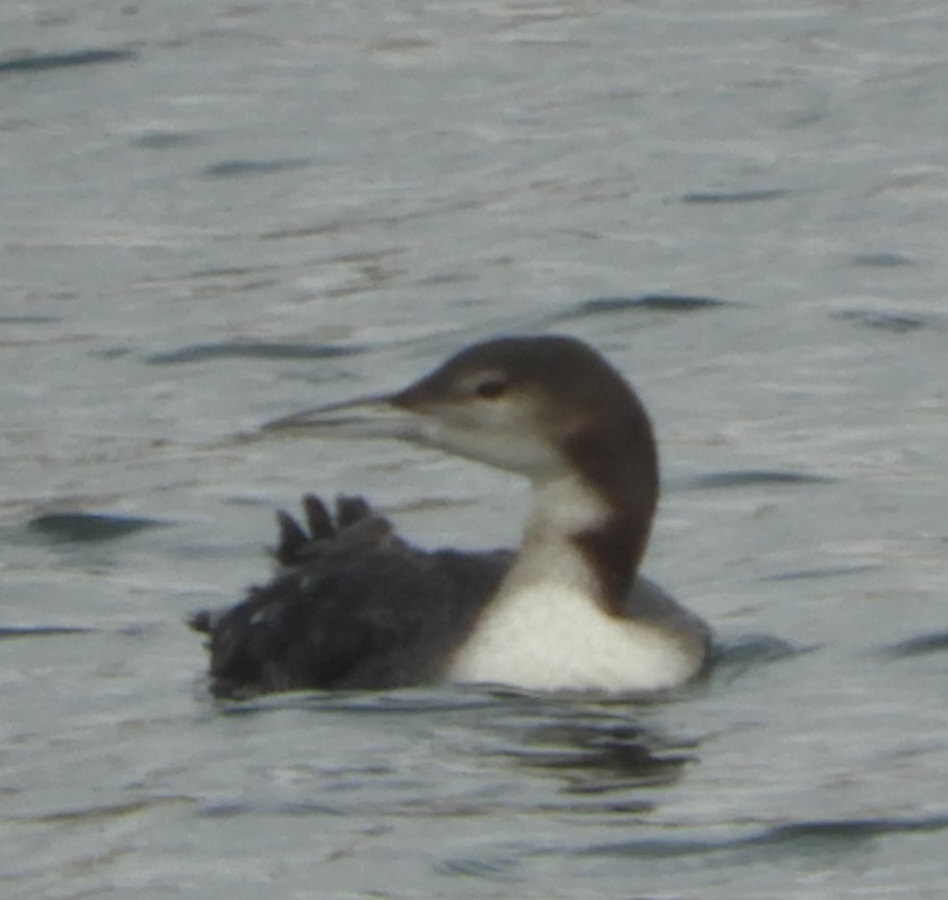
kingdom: Animalia
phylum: Chordata
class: Aves
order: Gaviiformes
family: Gaviidae
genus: Gavia
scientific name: Gavia immer
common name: Common loon
